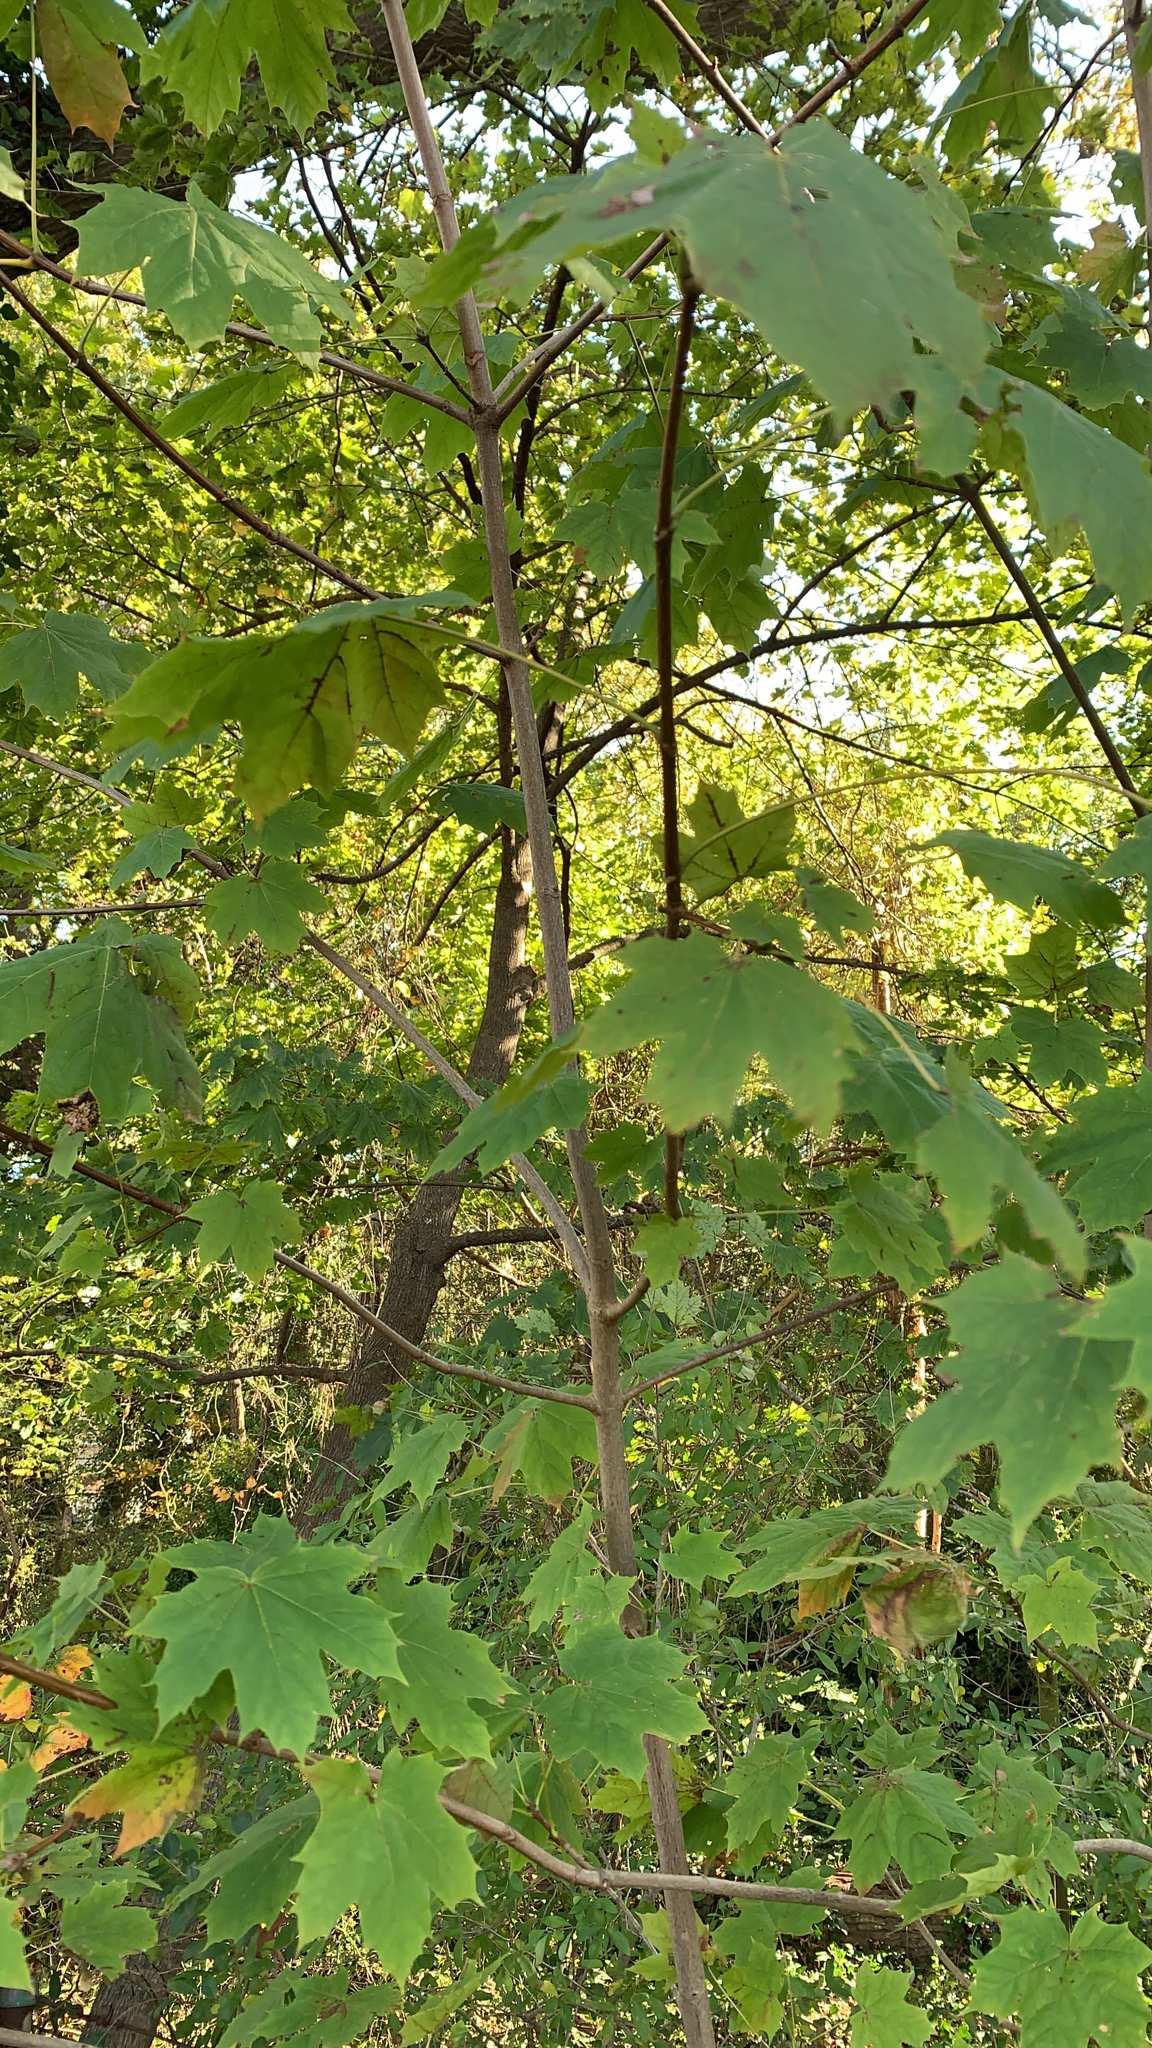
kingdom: Plantae
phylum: Tracheophyta
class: Magnoliopsida
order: Sapindales
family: Sapindaceae
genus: Acer
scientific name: Acer platanoides
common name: Norway maple
